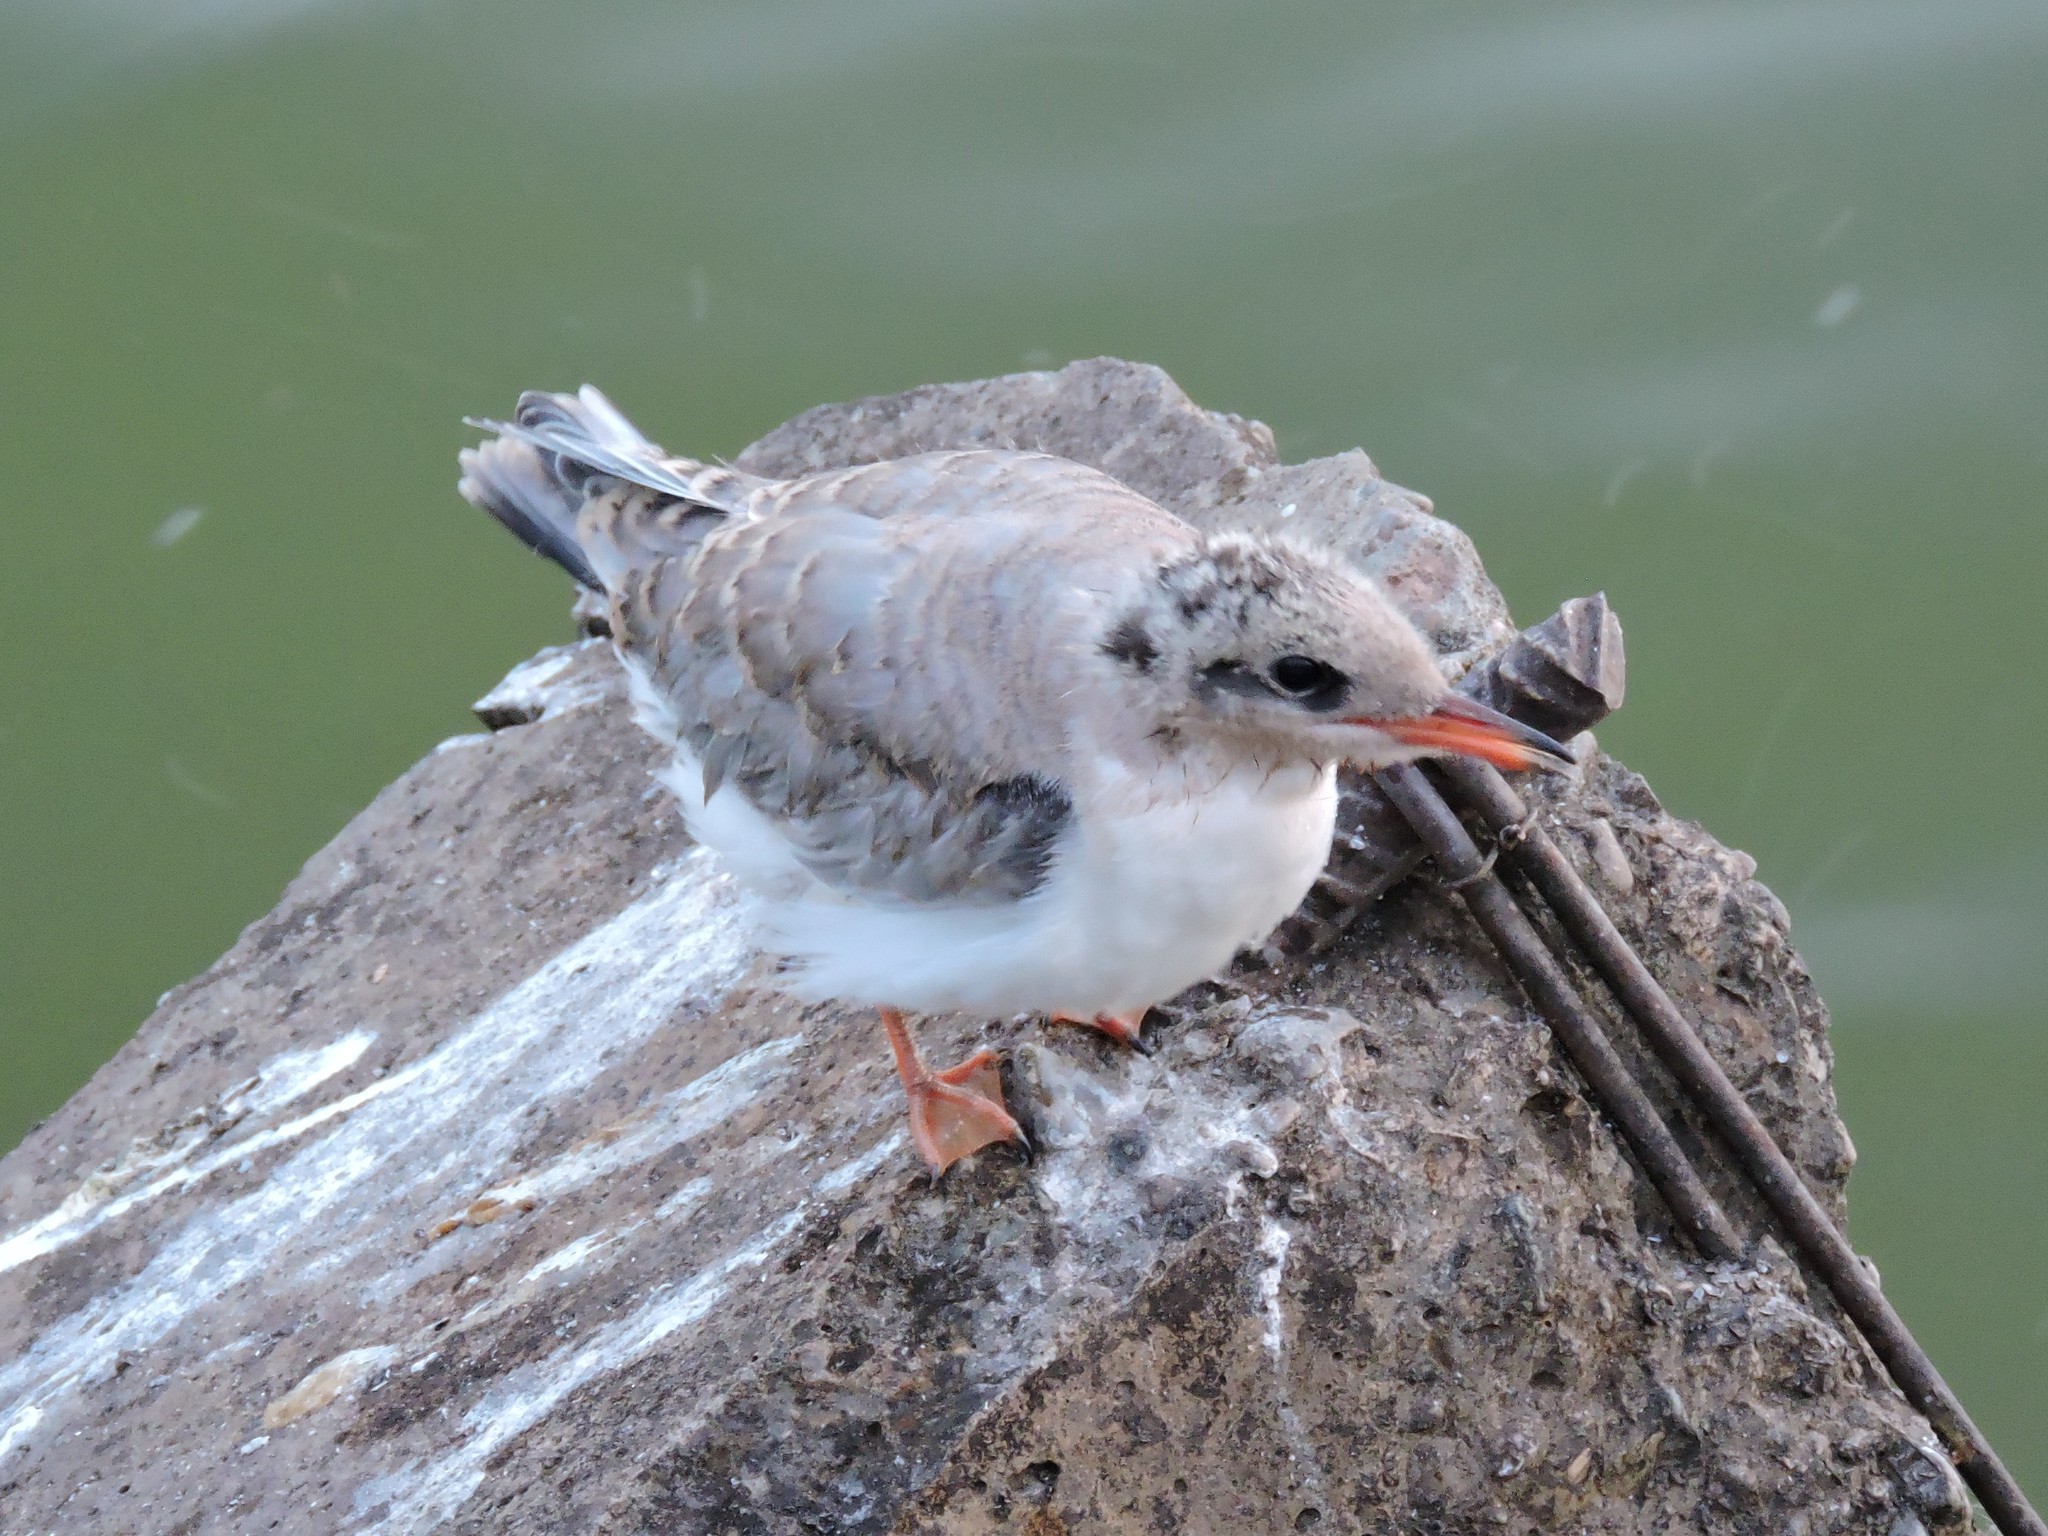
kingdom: Animalia
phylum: Chordata
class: Aves
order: Charadriiformes
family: Laridae
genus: Sterna
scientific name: Sterna hirundo
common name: Common tern
